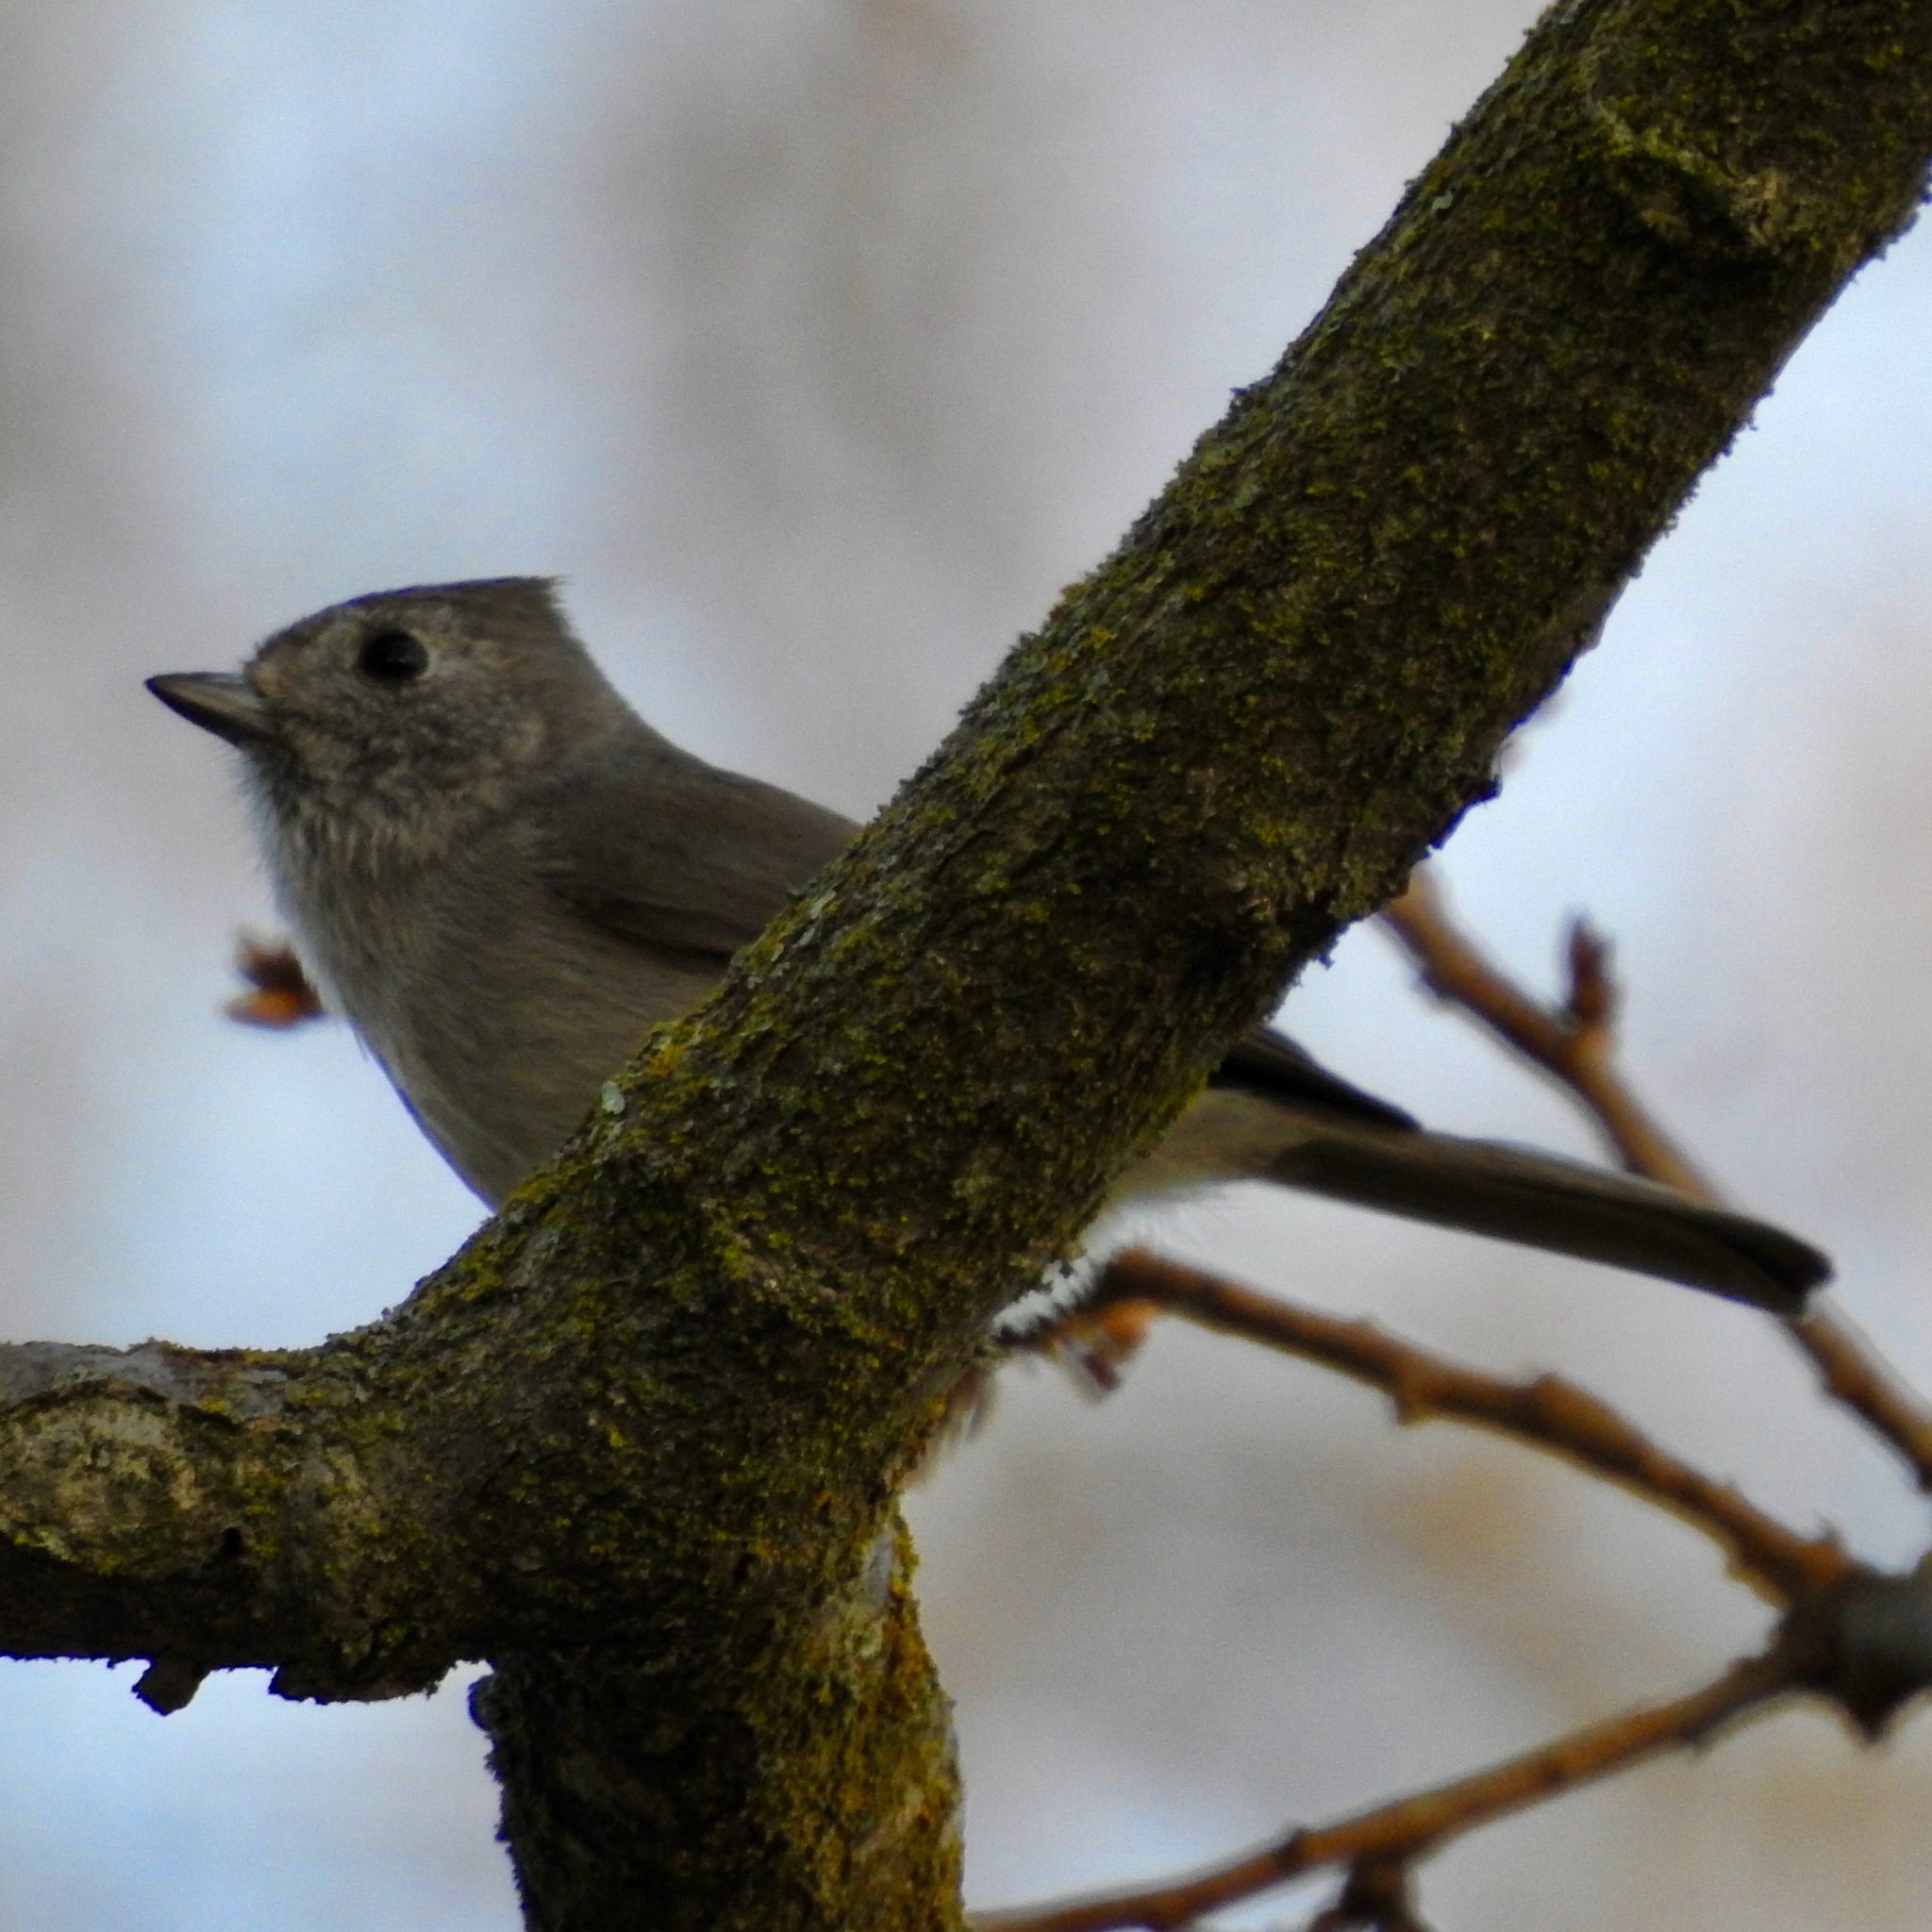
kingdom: Animalia
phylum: Chordata
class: Aves
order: Passeriformes
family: Paridae
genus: Baeolophus
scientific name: Baeolophus inornatus
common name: Oak titmouse
